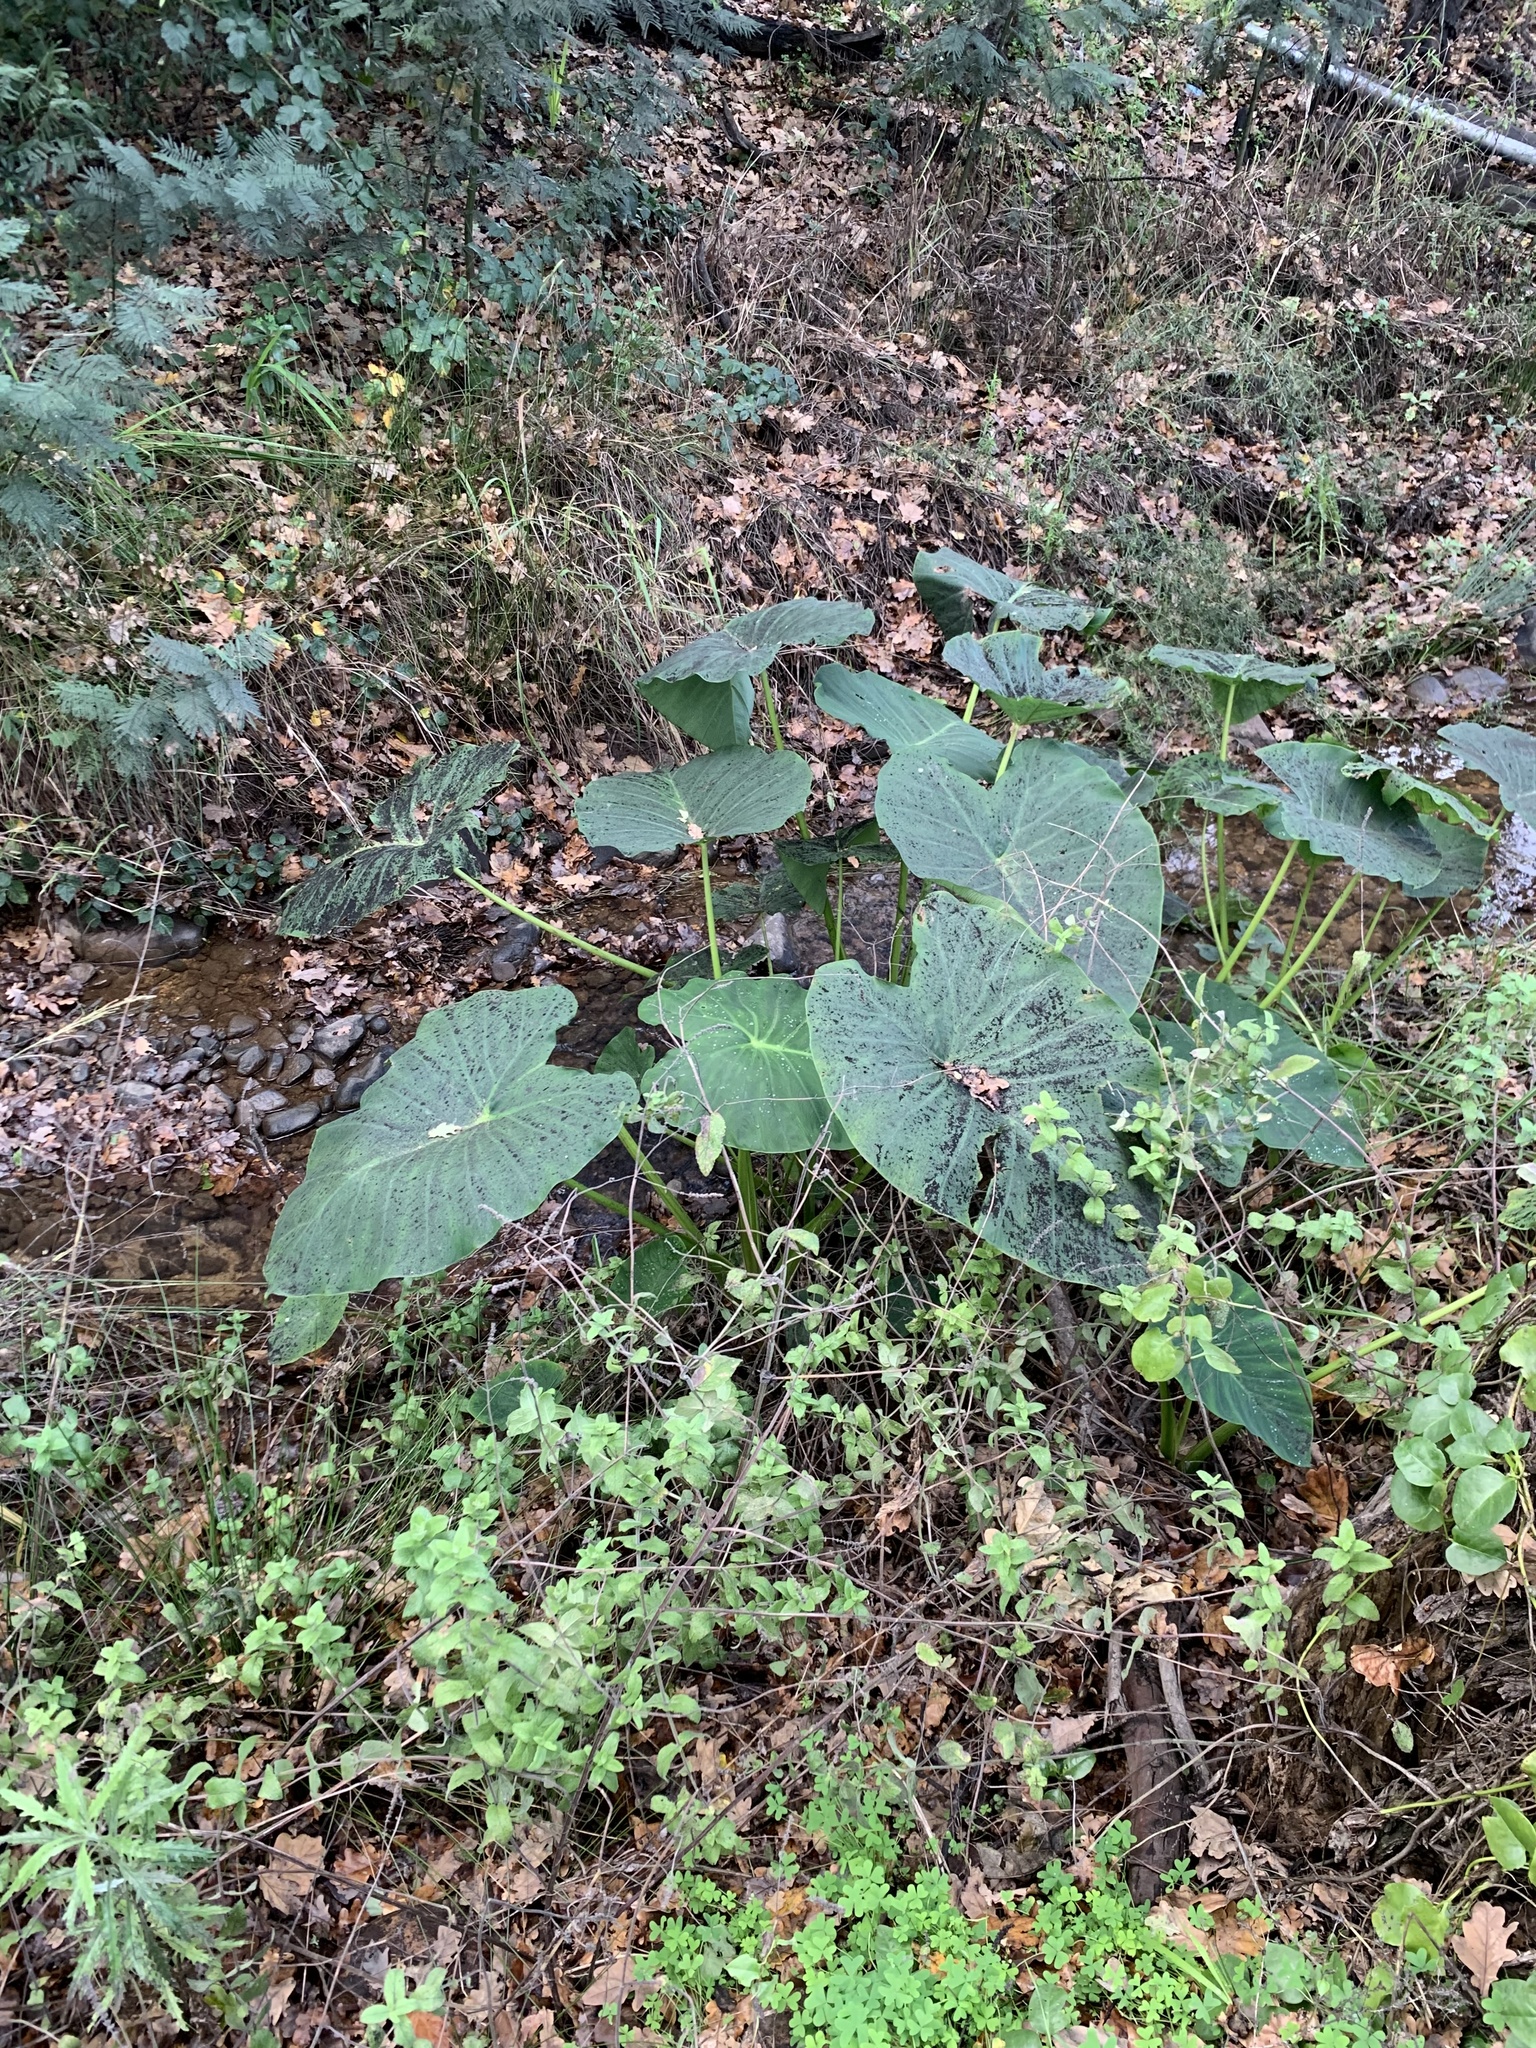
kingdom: Plantae
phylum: Tracheophyta
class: Liliopsida
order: Alismatales
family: Araceae
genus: Colocasia
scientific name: Colocasia esculenta
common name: Taro
